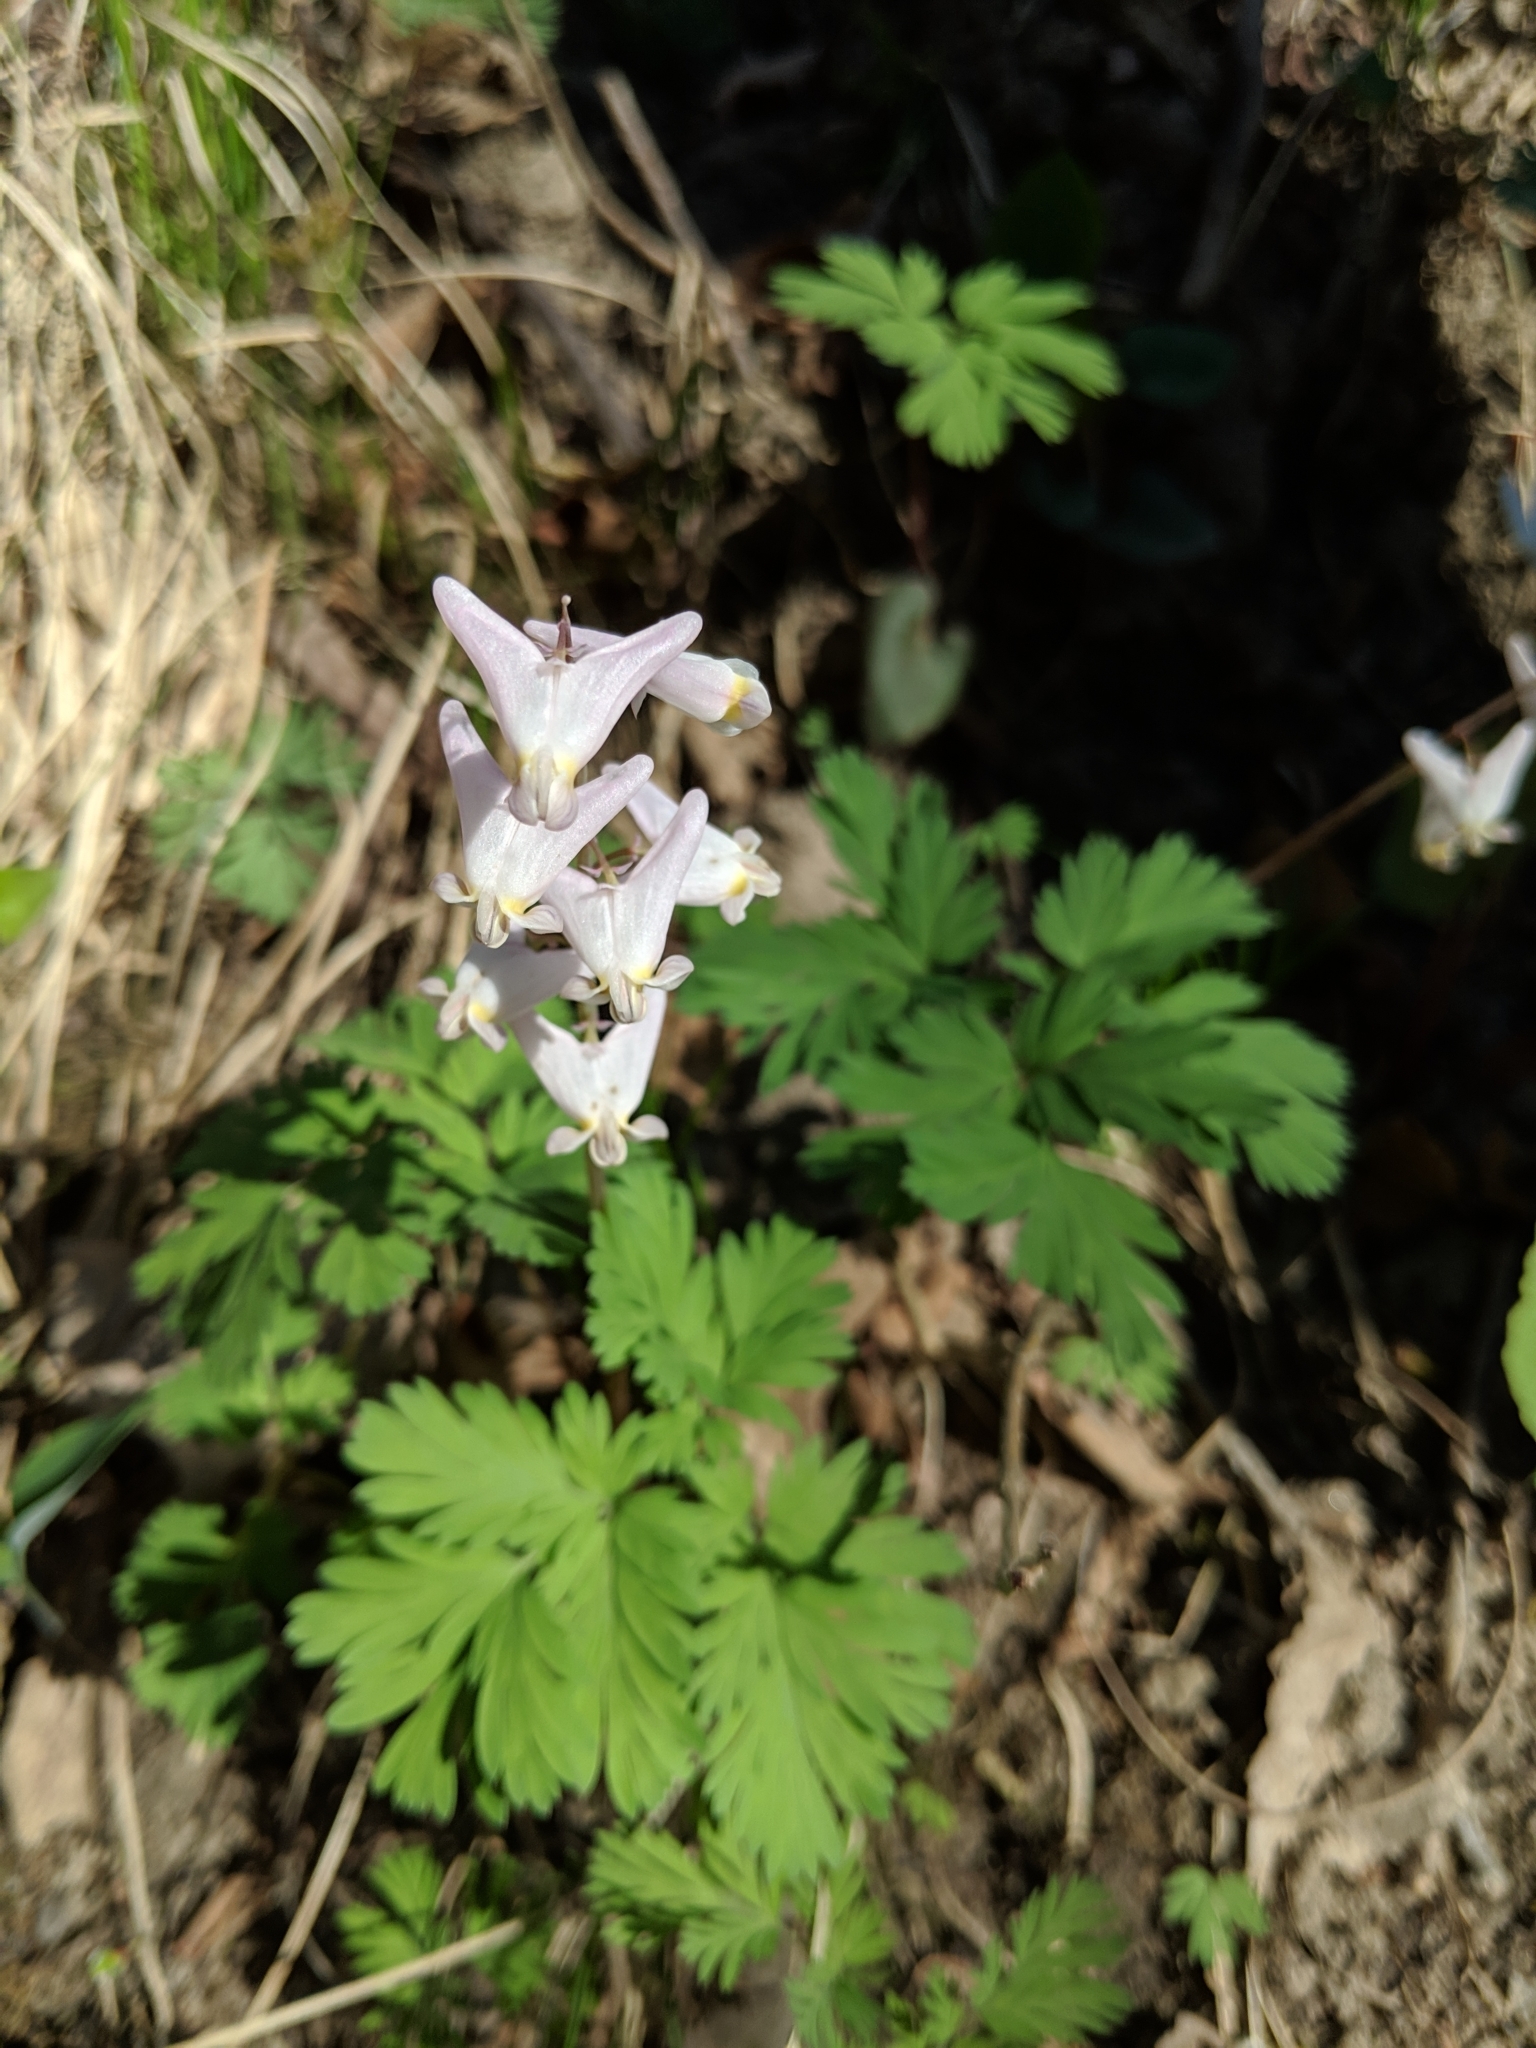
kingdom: Plantae
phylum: Tracheophyta
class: Magnoliopsida
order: Ranunculales
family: Papaveraceae
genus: Dicentra
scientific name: Dicentra cucullaria
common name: Dutchman's breeches
